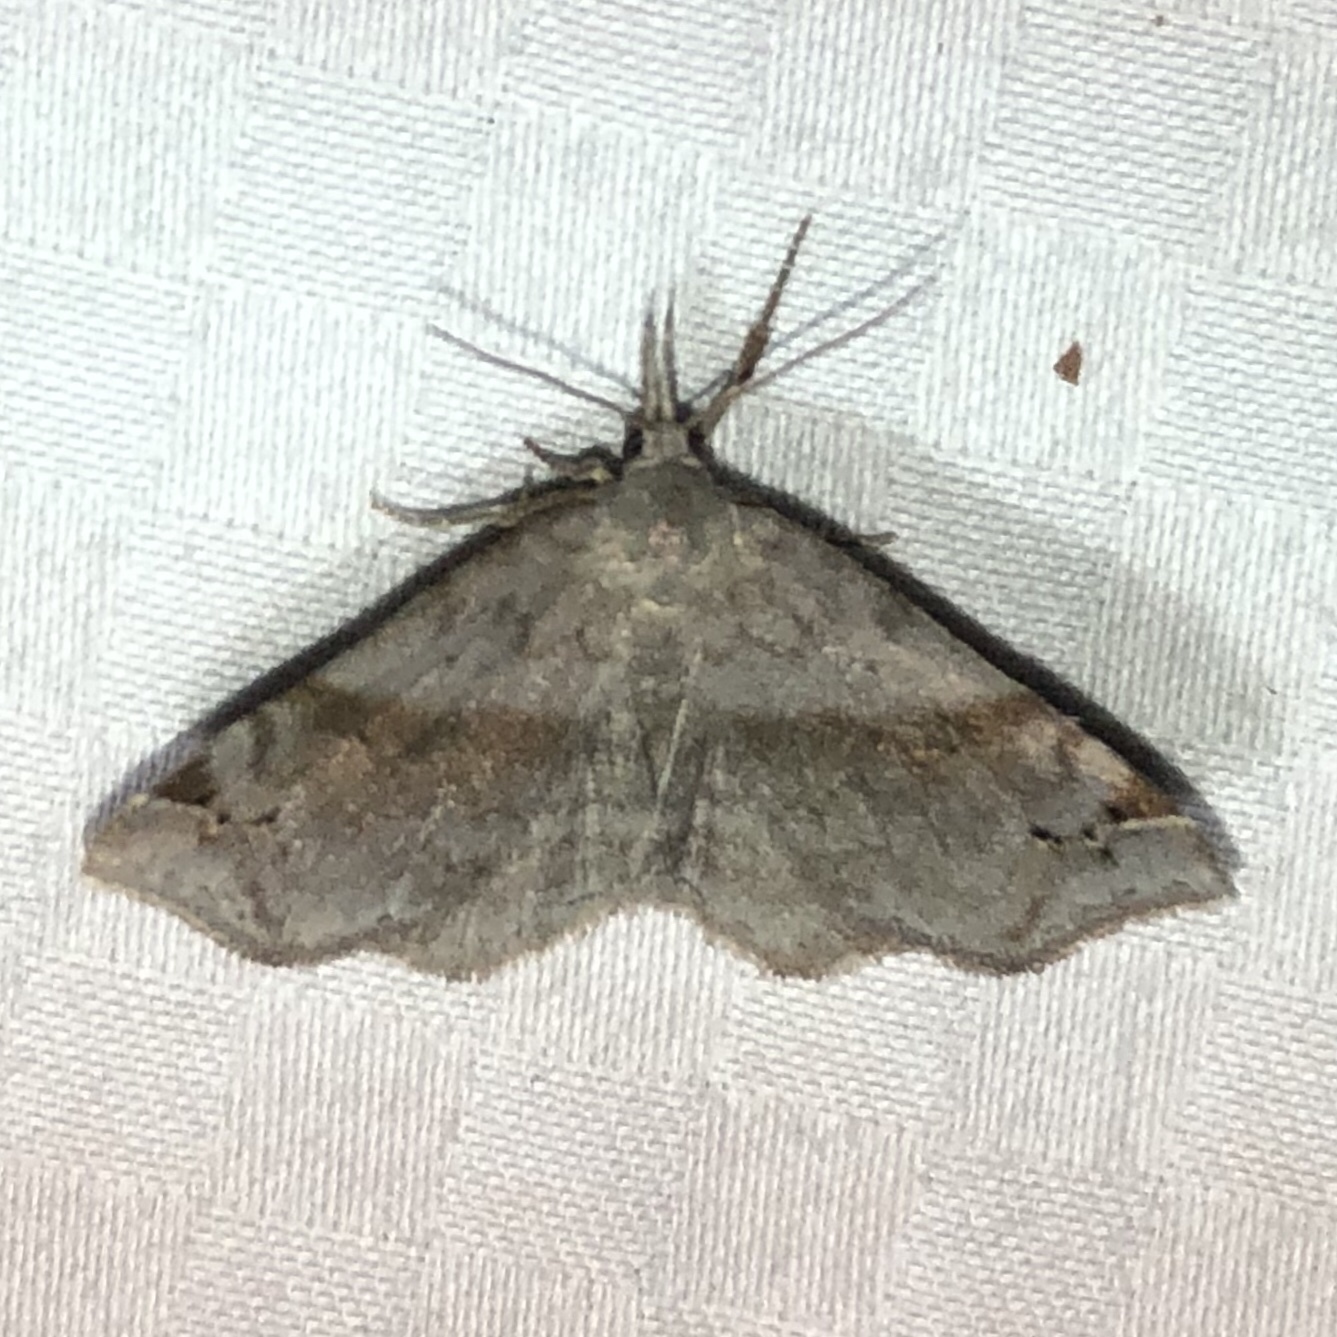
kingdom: Animalia
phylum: Arthropoda
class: Insecta
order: Lepidoptera
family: Erebidae
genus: Spargaloma
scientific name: Spargaloma sexpunctata
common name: Six-spotted gray
